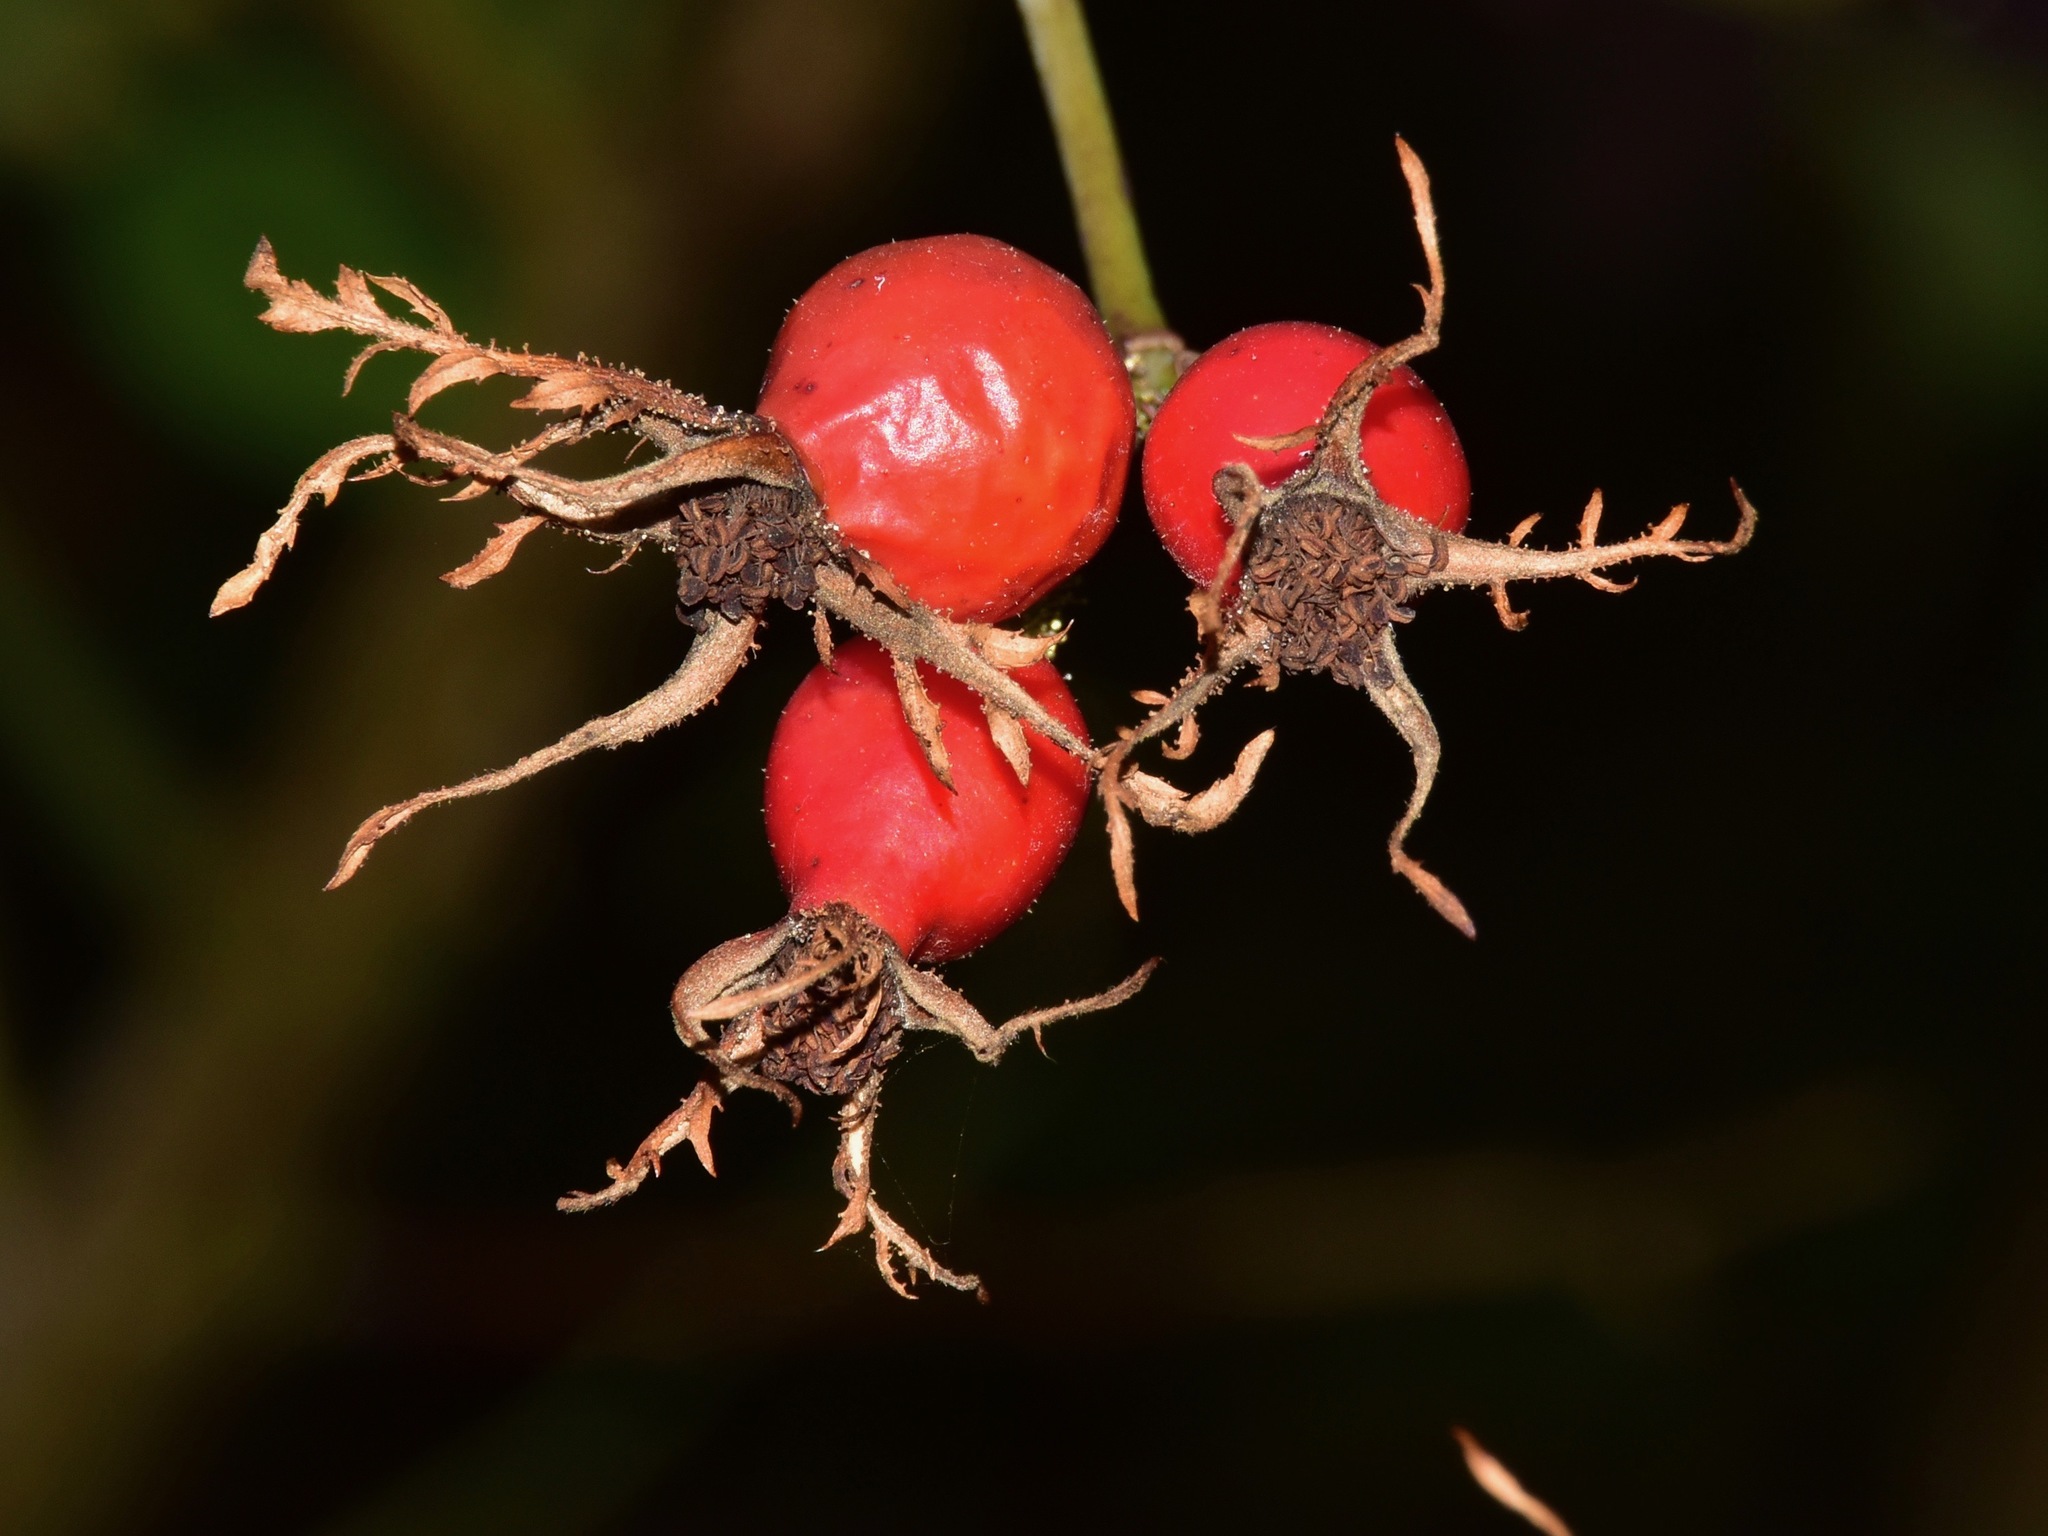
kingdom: Plantae
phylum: Tracheophyta
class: Magnoliopsida
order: Rosales
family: Rosaceae
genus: Rosa
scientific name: Rosa rubiginosa
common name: Sweet-briar
